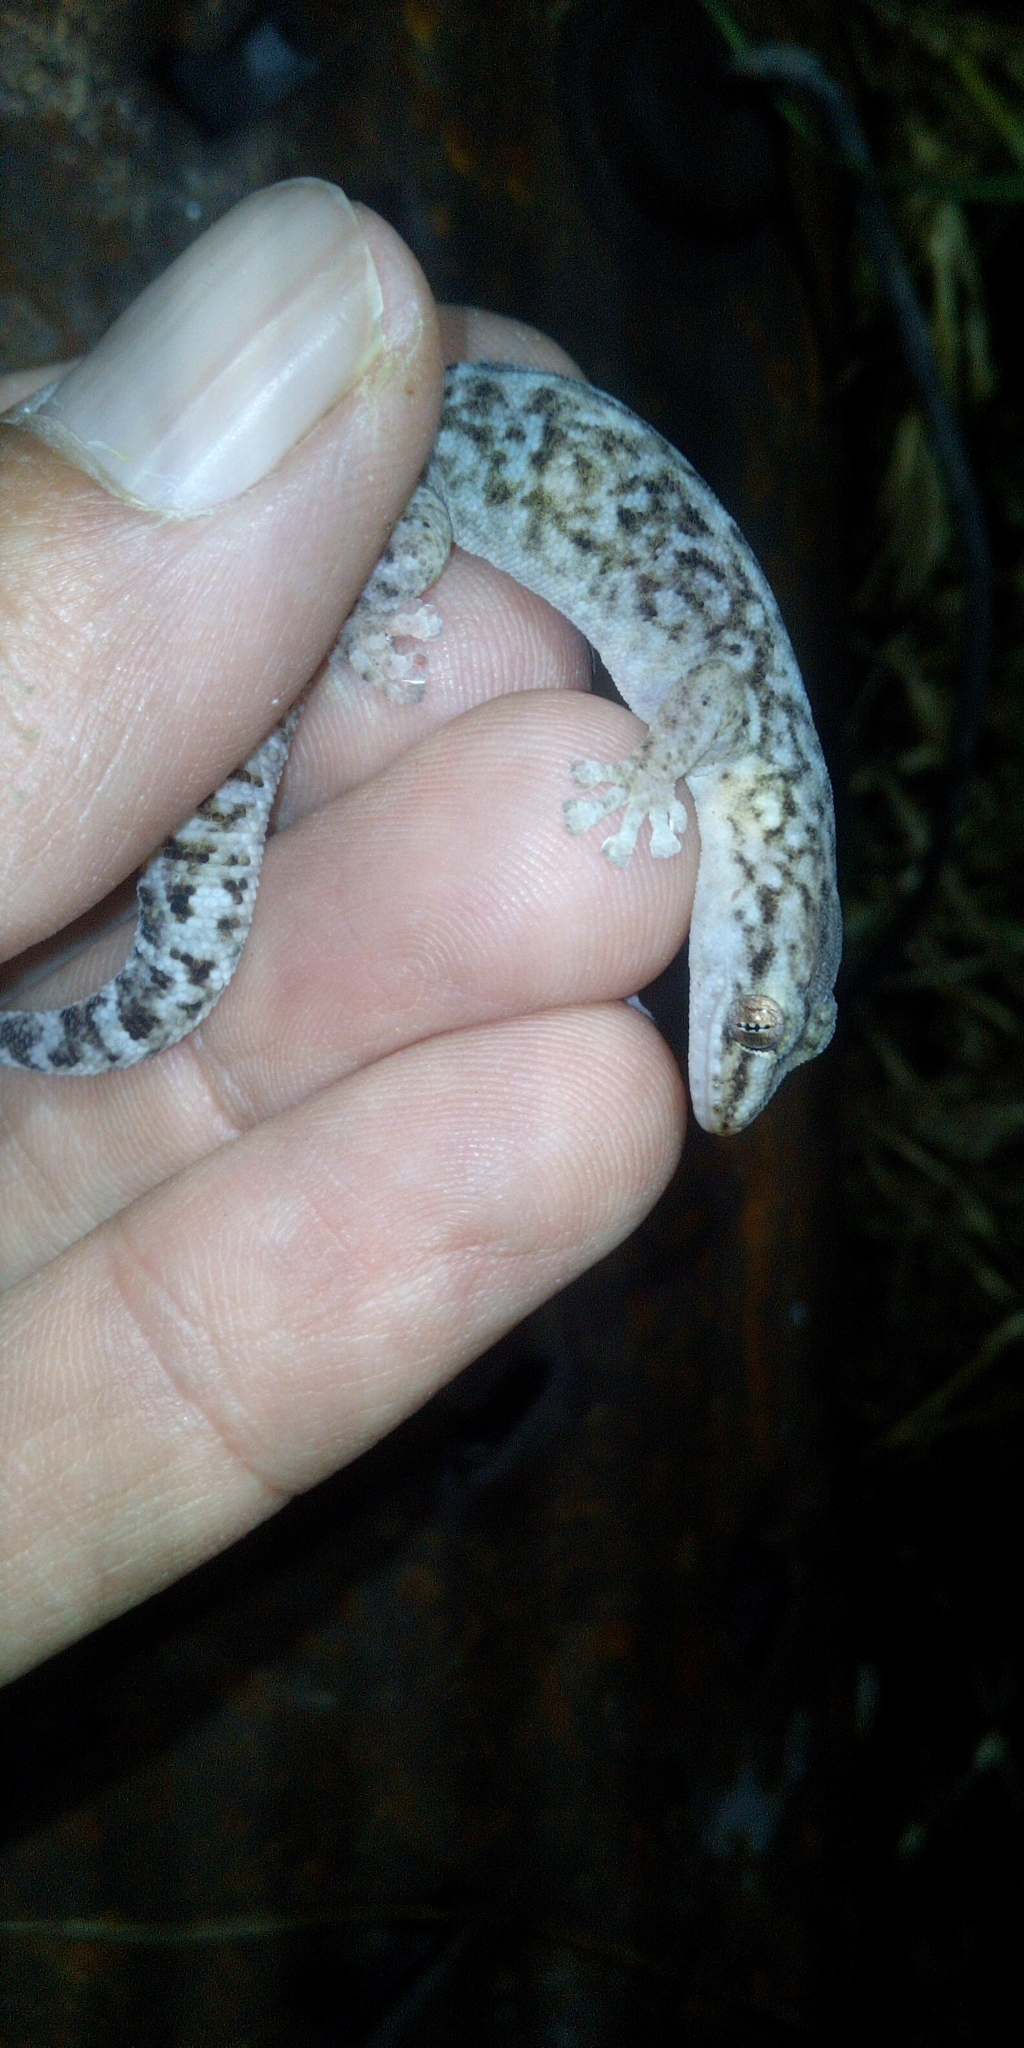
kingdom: Animalia
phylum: Chordata
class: Squamata
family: Gekkonidae
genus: Afrogecko
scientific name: Afrogecko porphyreus
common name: Marbled leaf-toed gecko
